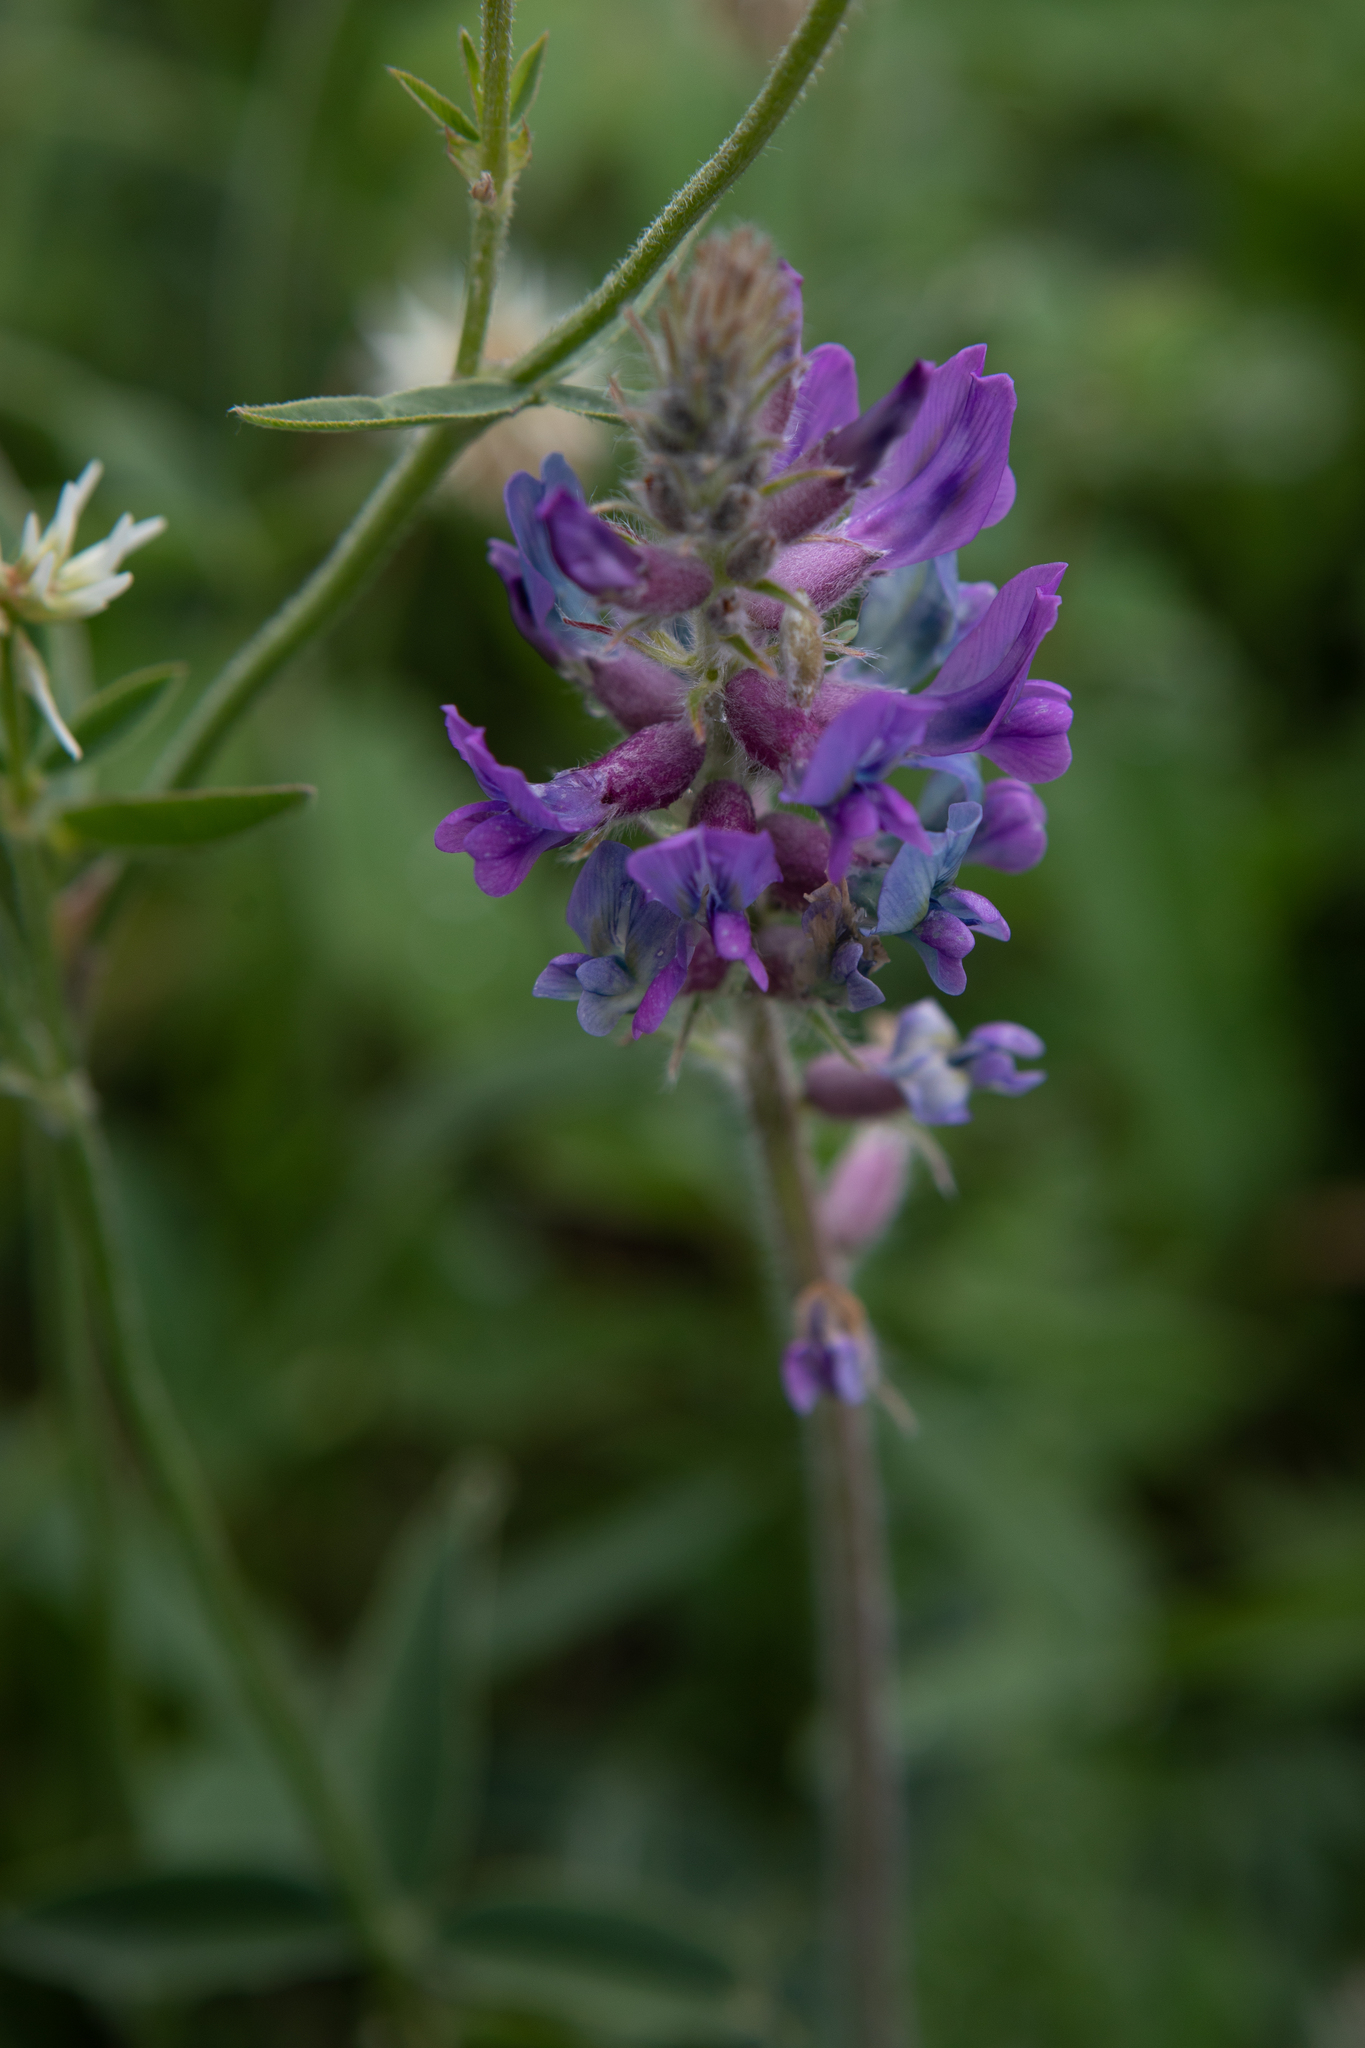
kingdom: Plantae
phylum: Tracheophyta
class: Magnoliopsida
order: Fabales
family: Fabaceae
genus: Oxytropis
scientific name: Oxytropis campanulata
